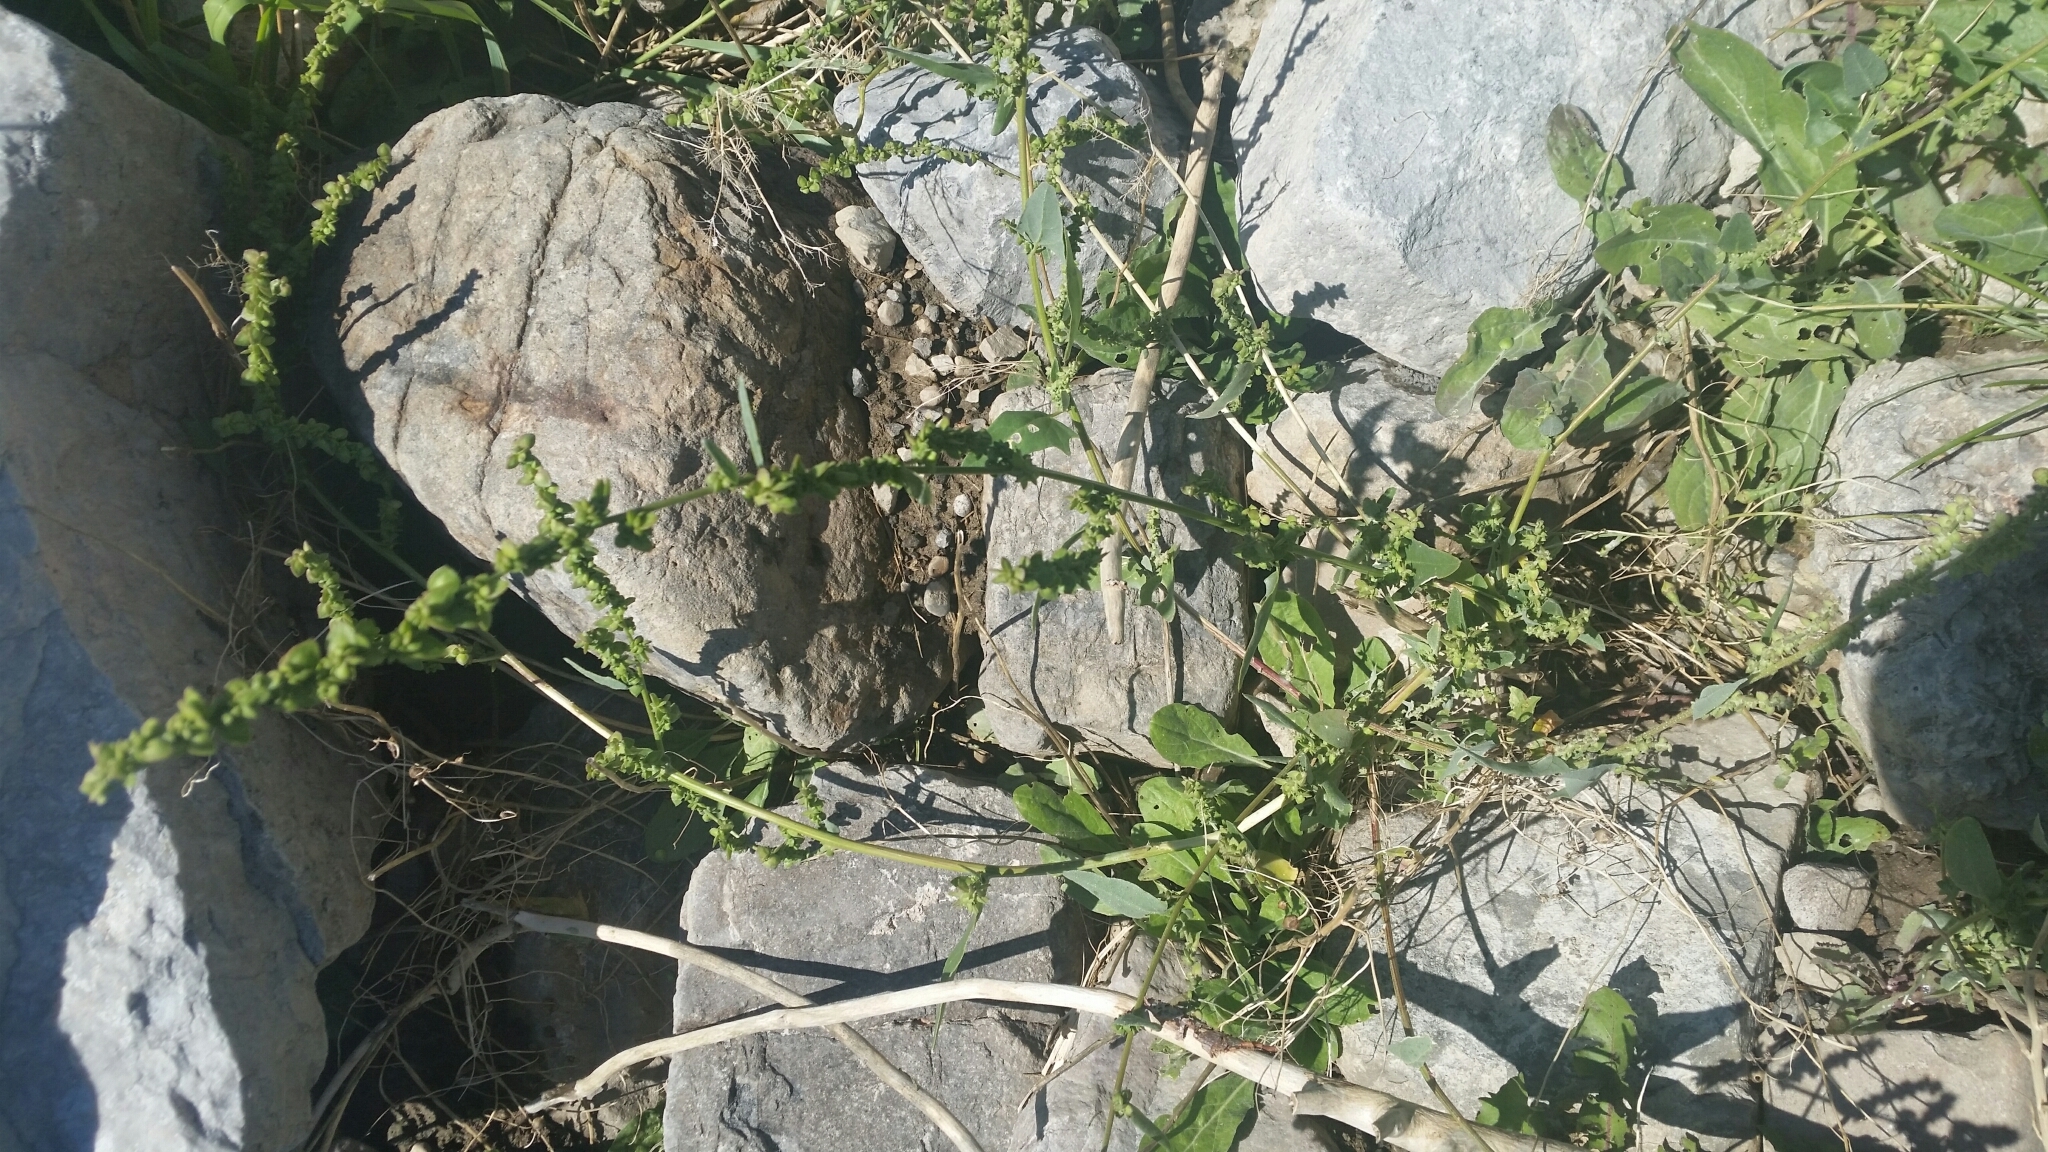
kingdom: Plantae
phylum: Tracheophyta
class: Magnoliopsida
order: Caryophyllales
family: Amaranthaceae
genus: Atriplex
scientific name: Atriplex micrantha
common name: Twoscale saltbush
